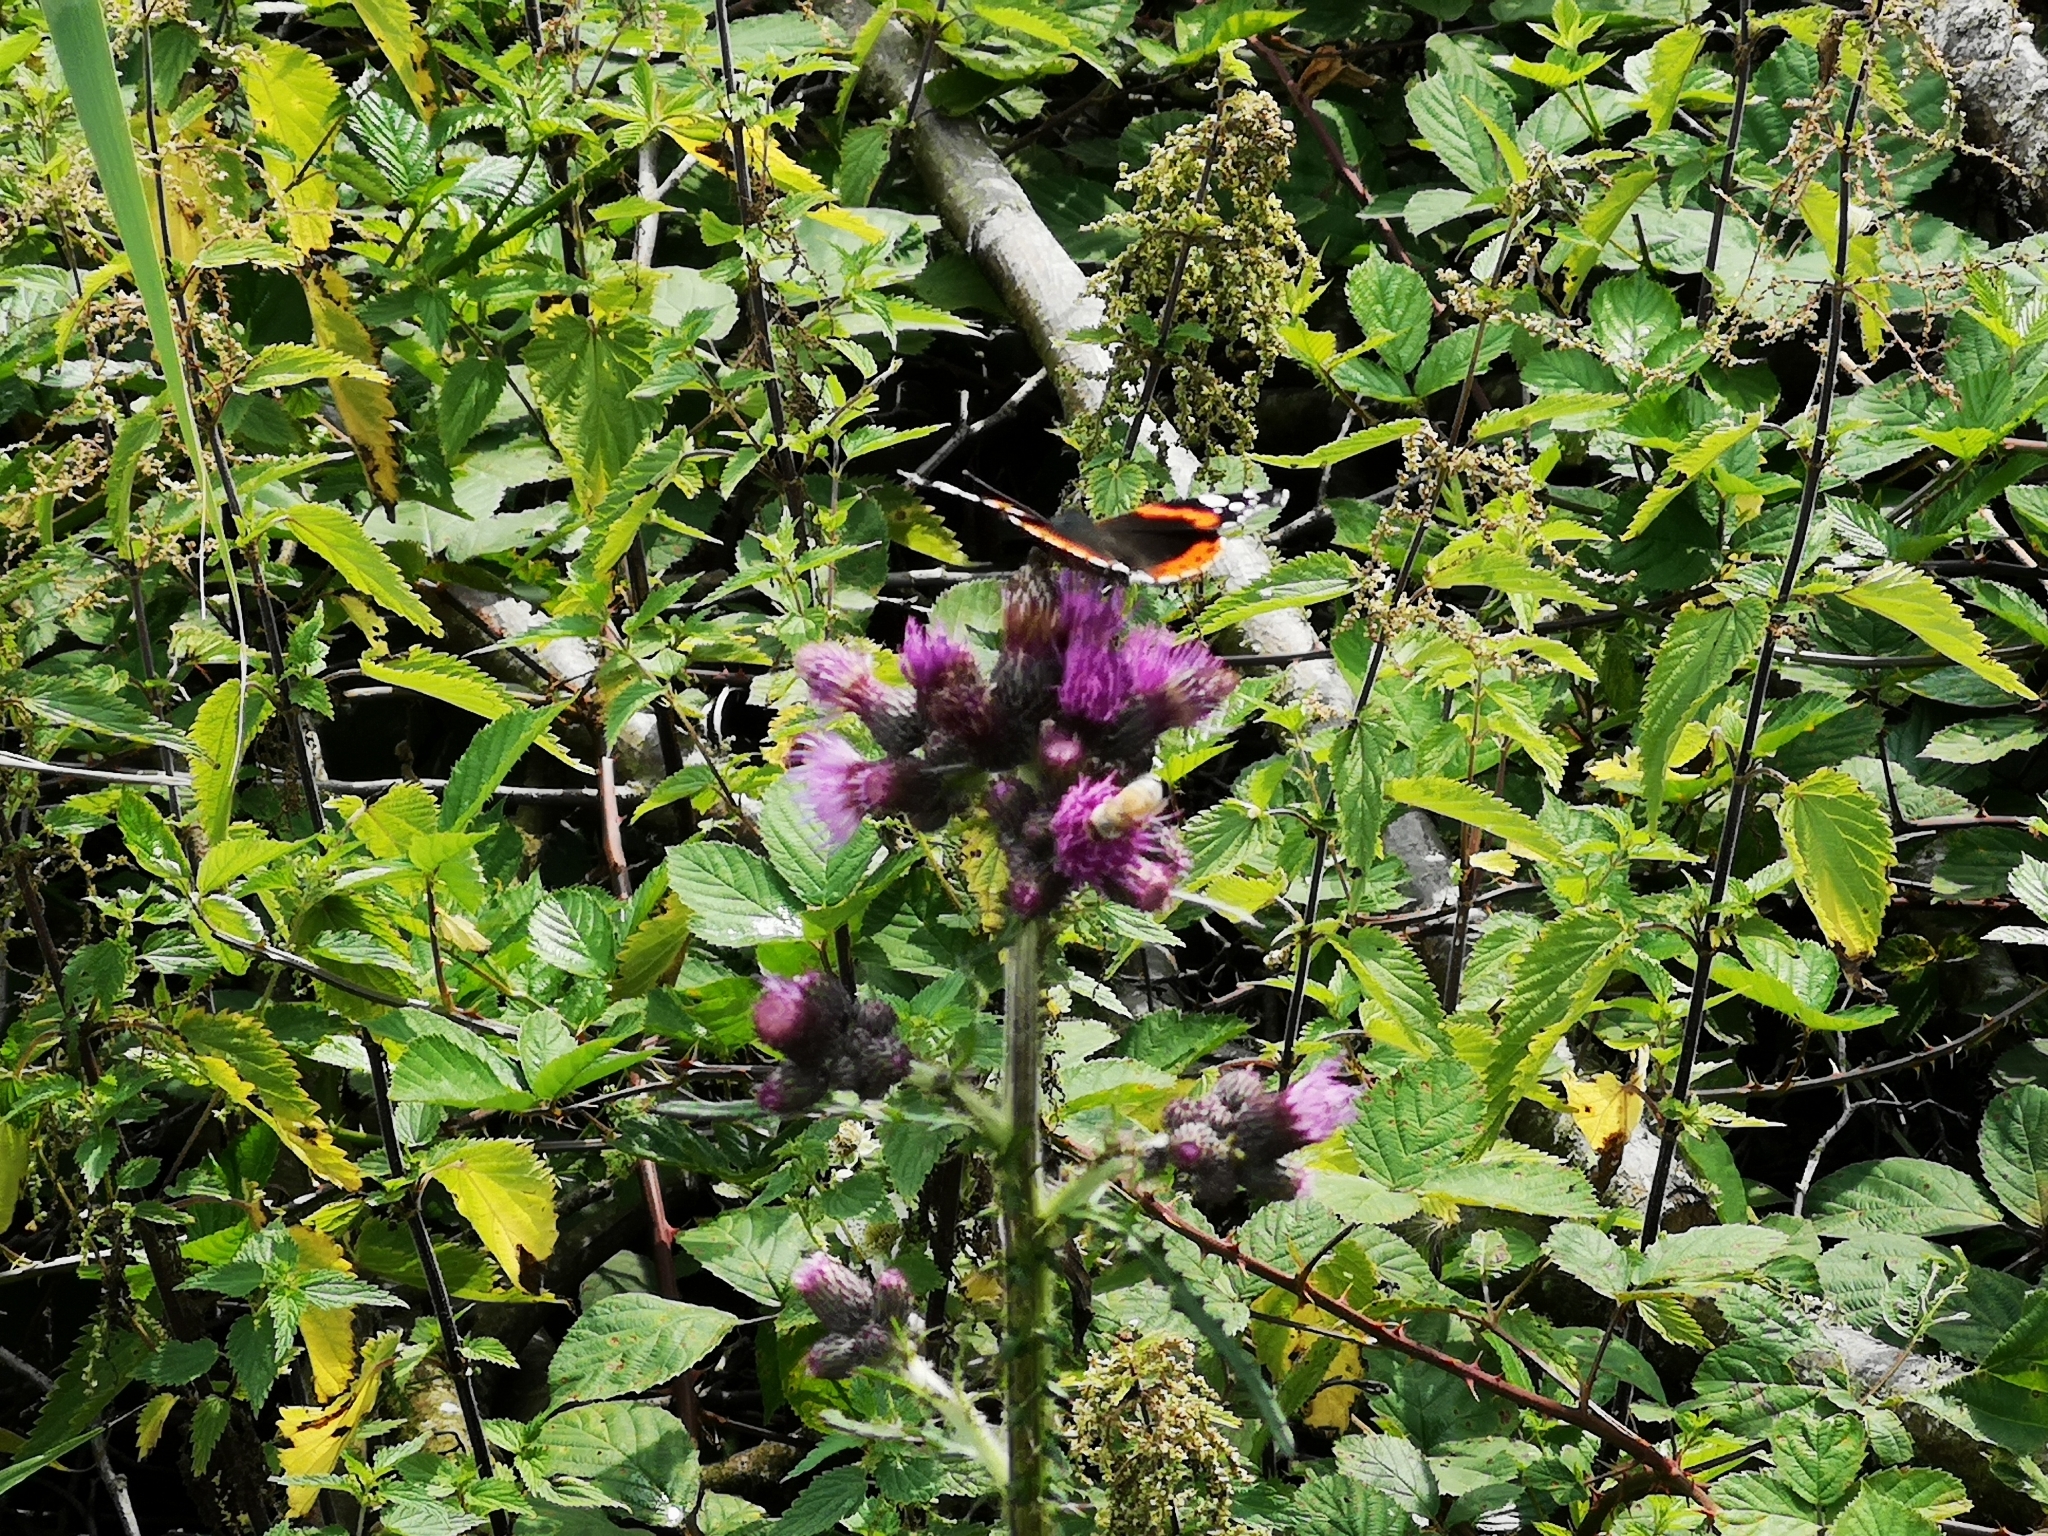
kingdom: Plantae
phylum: Tracheophyta
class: Magnoliopsida
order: Asterales
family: Asteraceae
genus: Cirsium
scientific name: Cirsium palustre
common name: Marsh thistle
